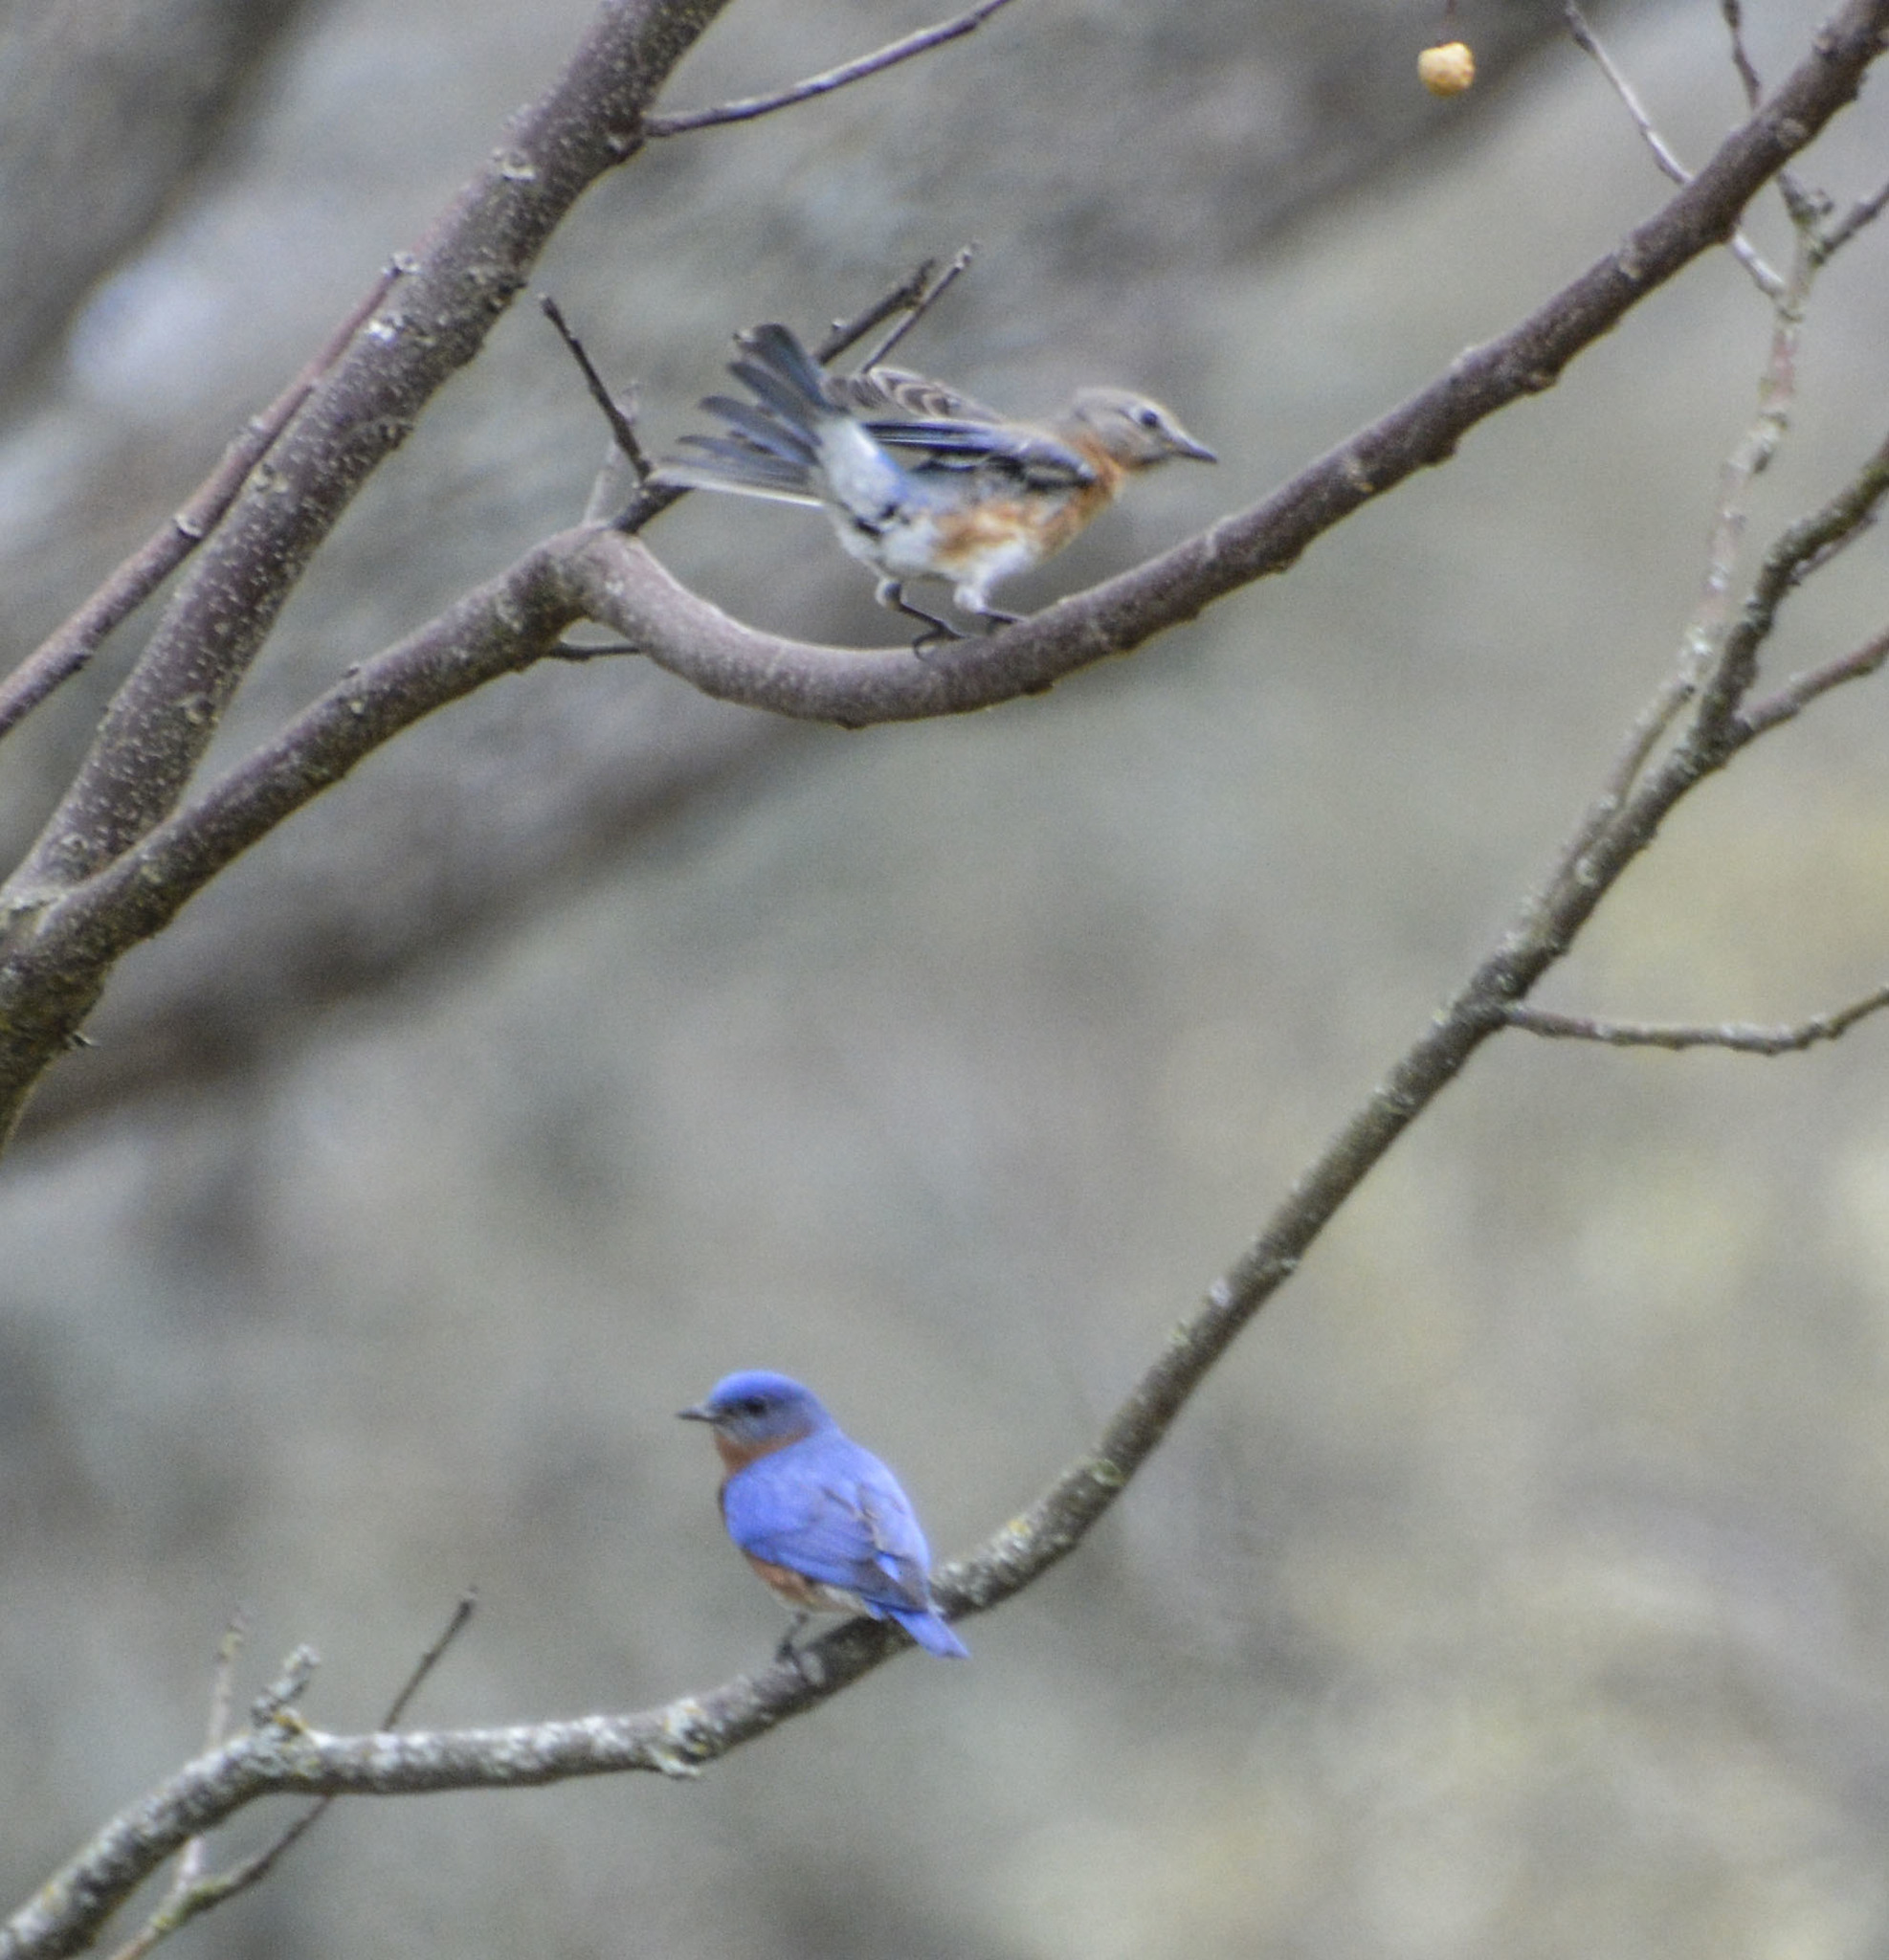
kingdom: Animalia
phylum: Chordata
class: Aves
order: Passeriformes
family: Turdidae
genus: Sialia
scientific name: Sialia sialis
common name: Eastern bluebird
